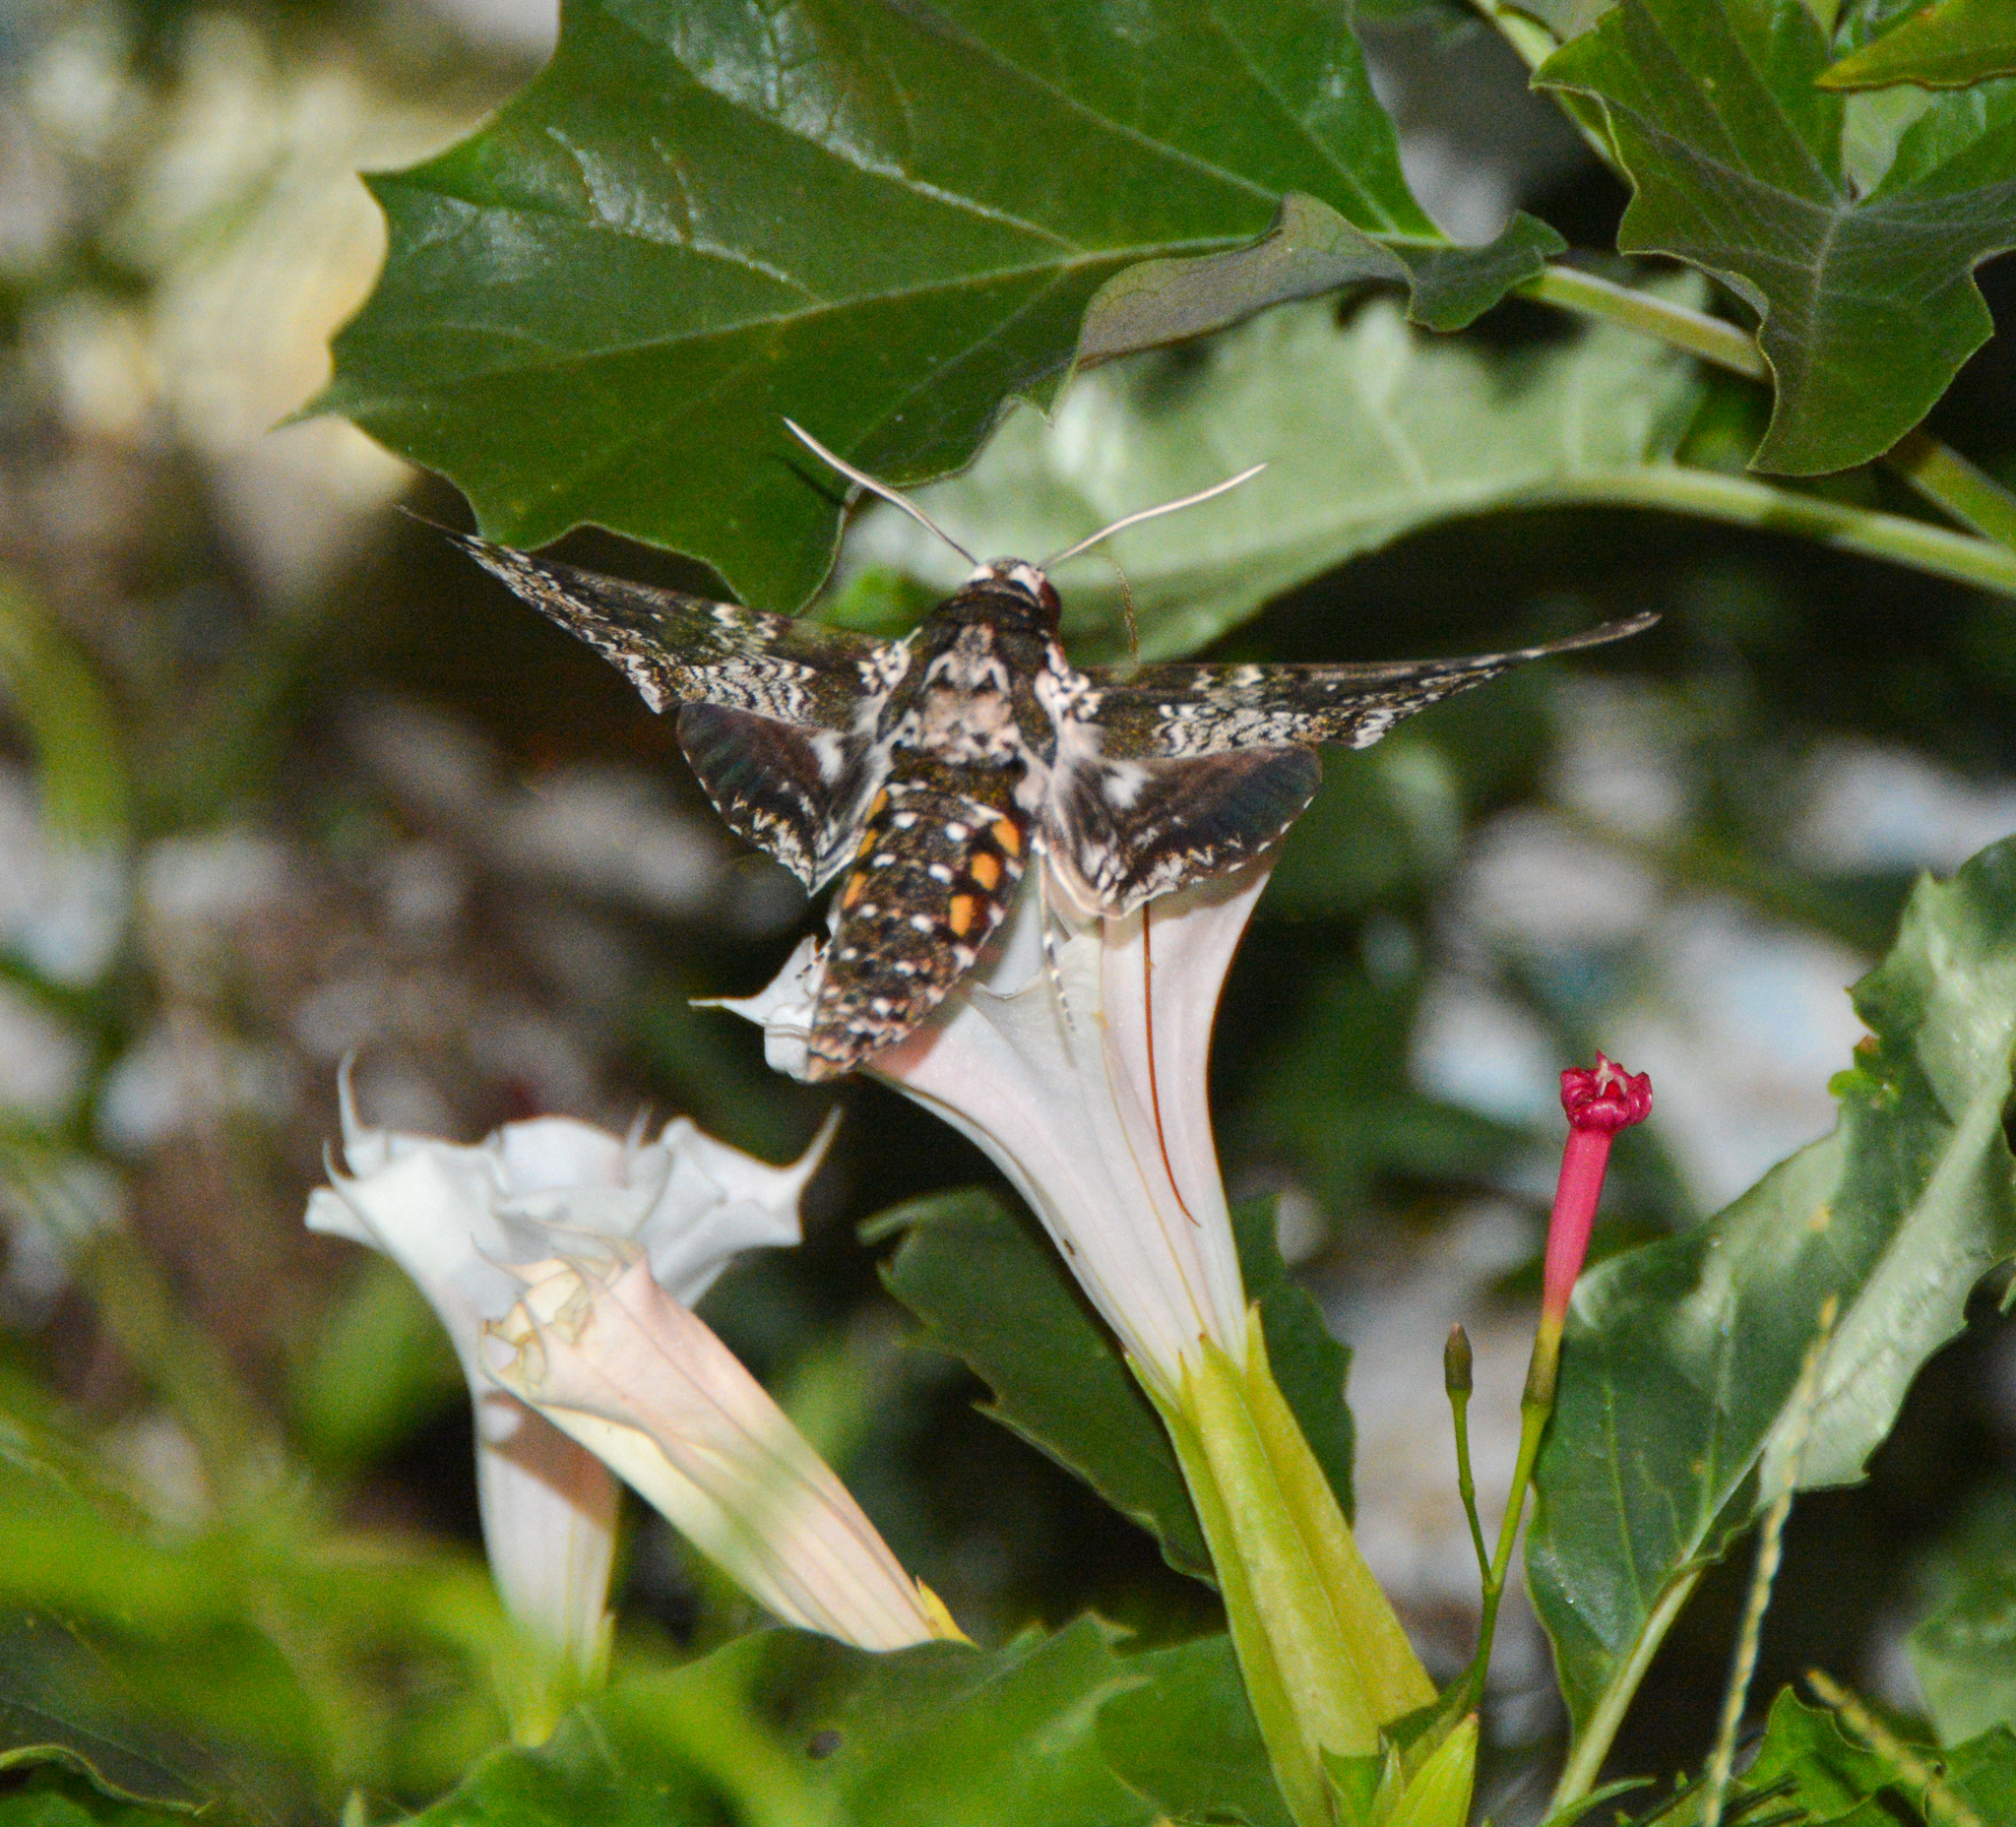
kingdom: Animalia
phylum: Arthropoda
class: Insecta
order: Lepidoptera
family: Sphingidae
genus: Manduca
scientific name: Manduca rustica
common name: Rustic sphinx
